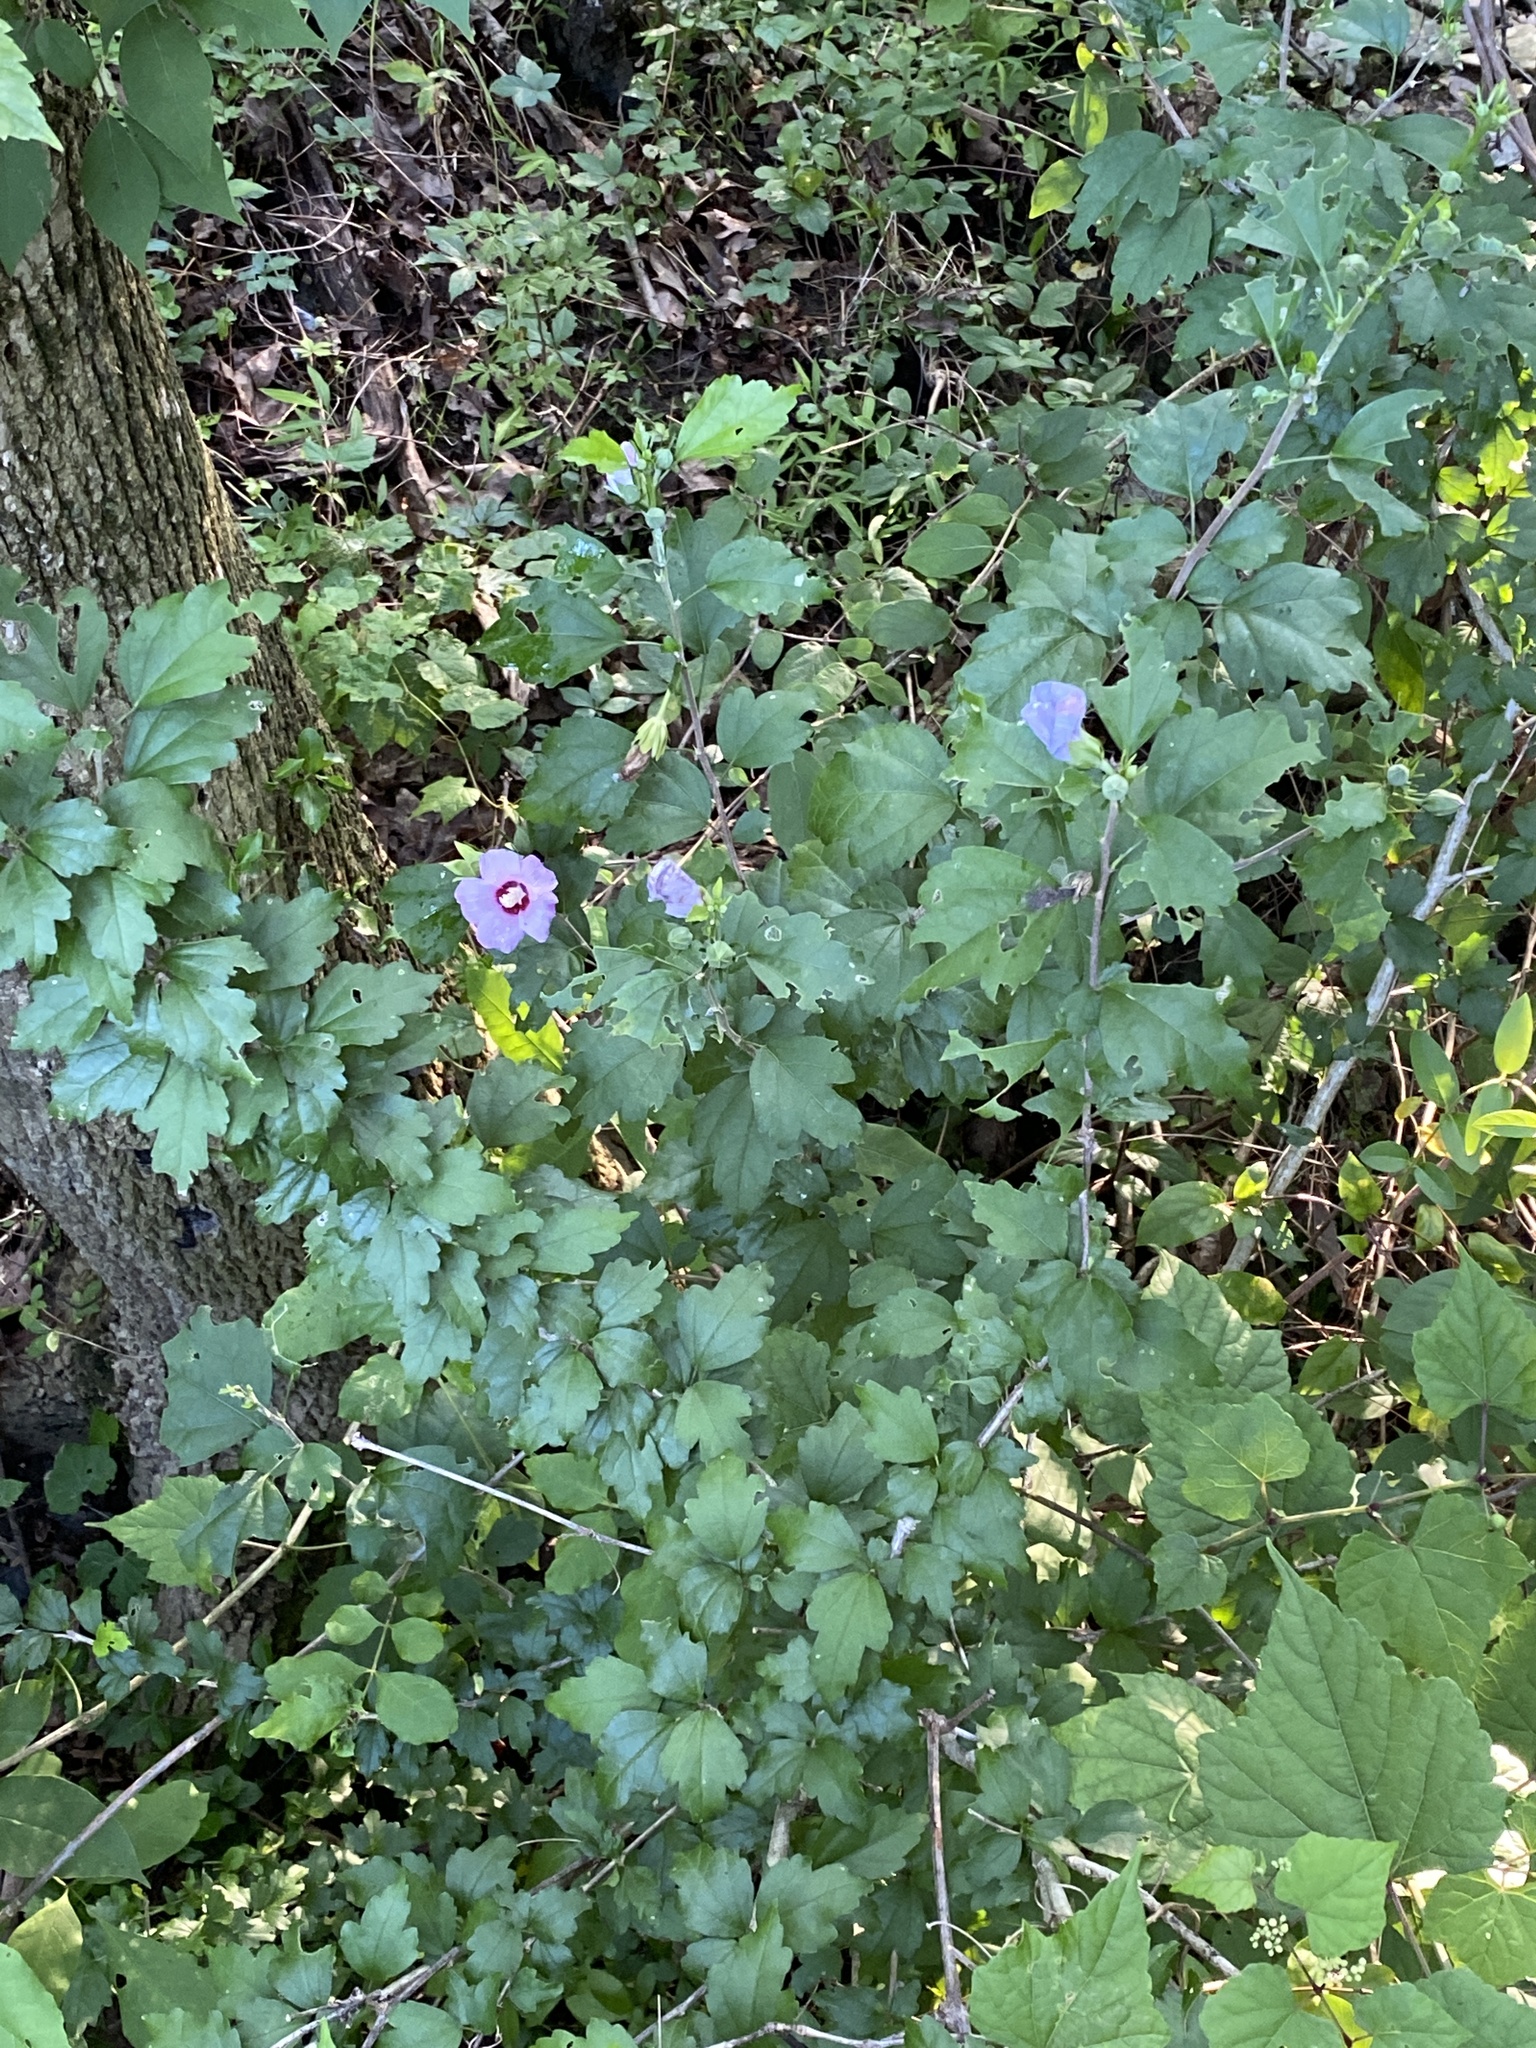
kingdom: Plantae
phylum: Tracheophyta
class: Magnoliopsida
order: Malvales
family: Malvaceae
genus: Hibiscus
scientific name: Hibiscus syriacus
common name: Syrian ketmia
